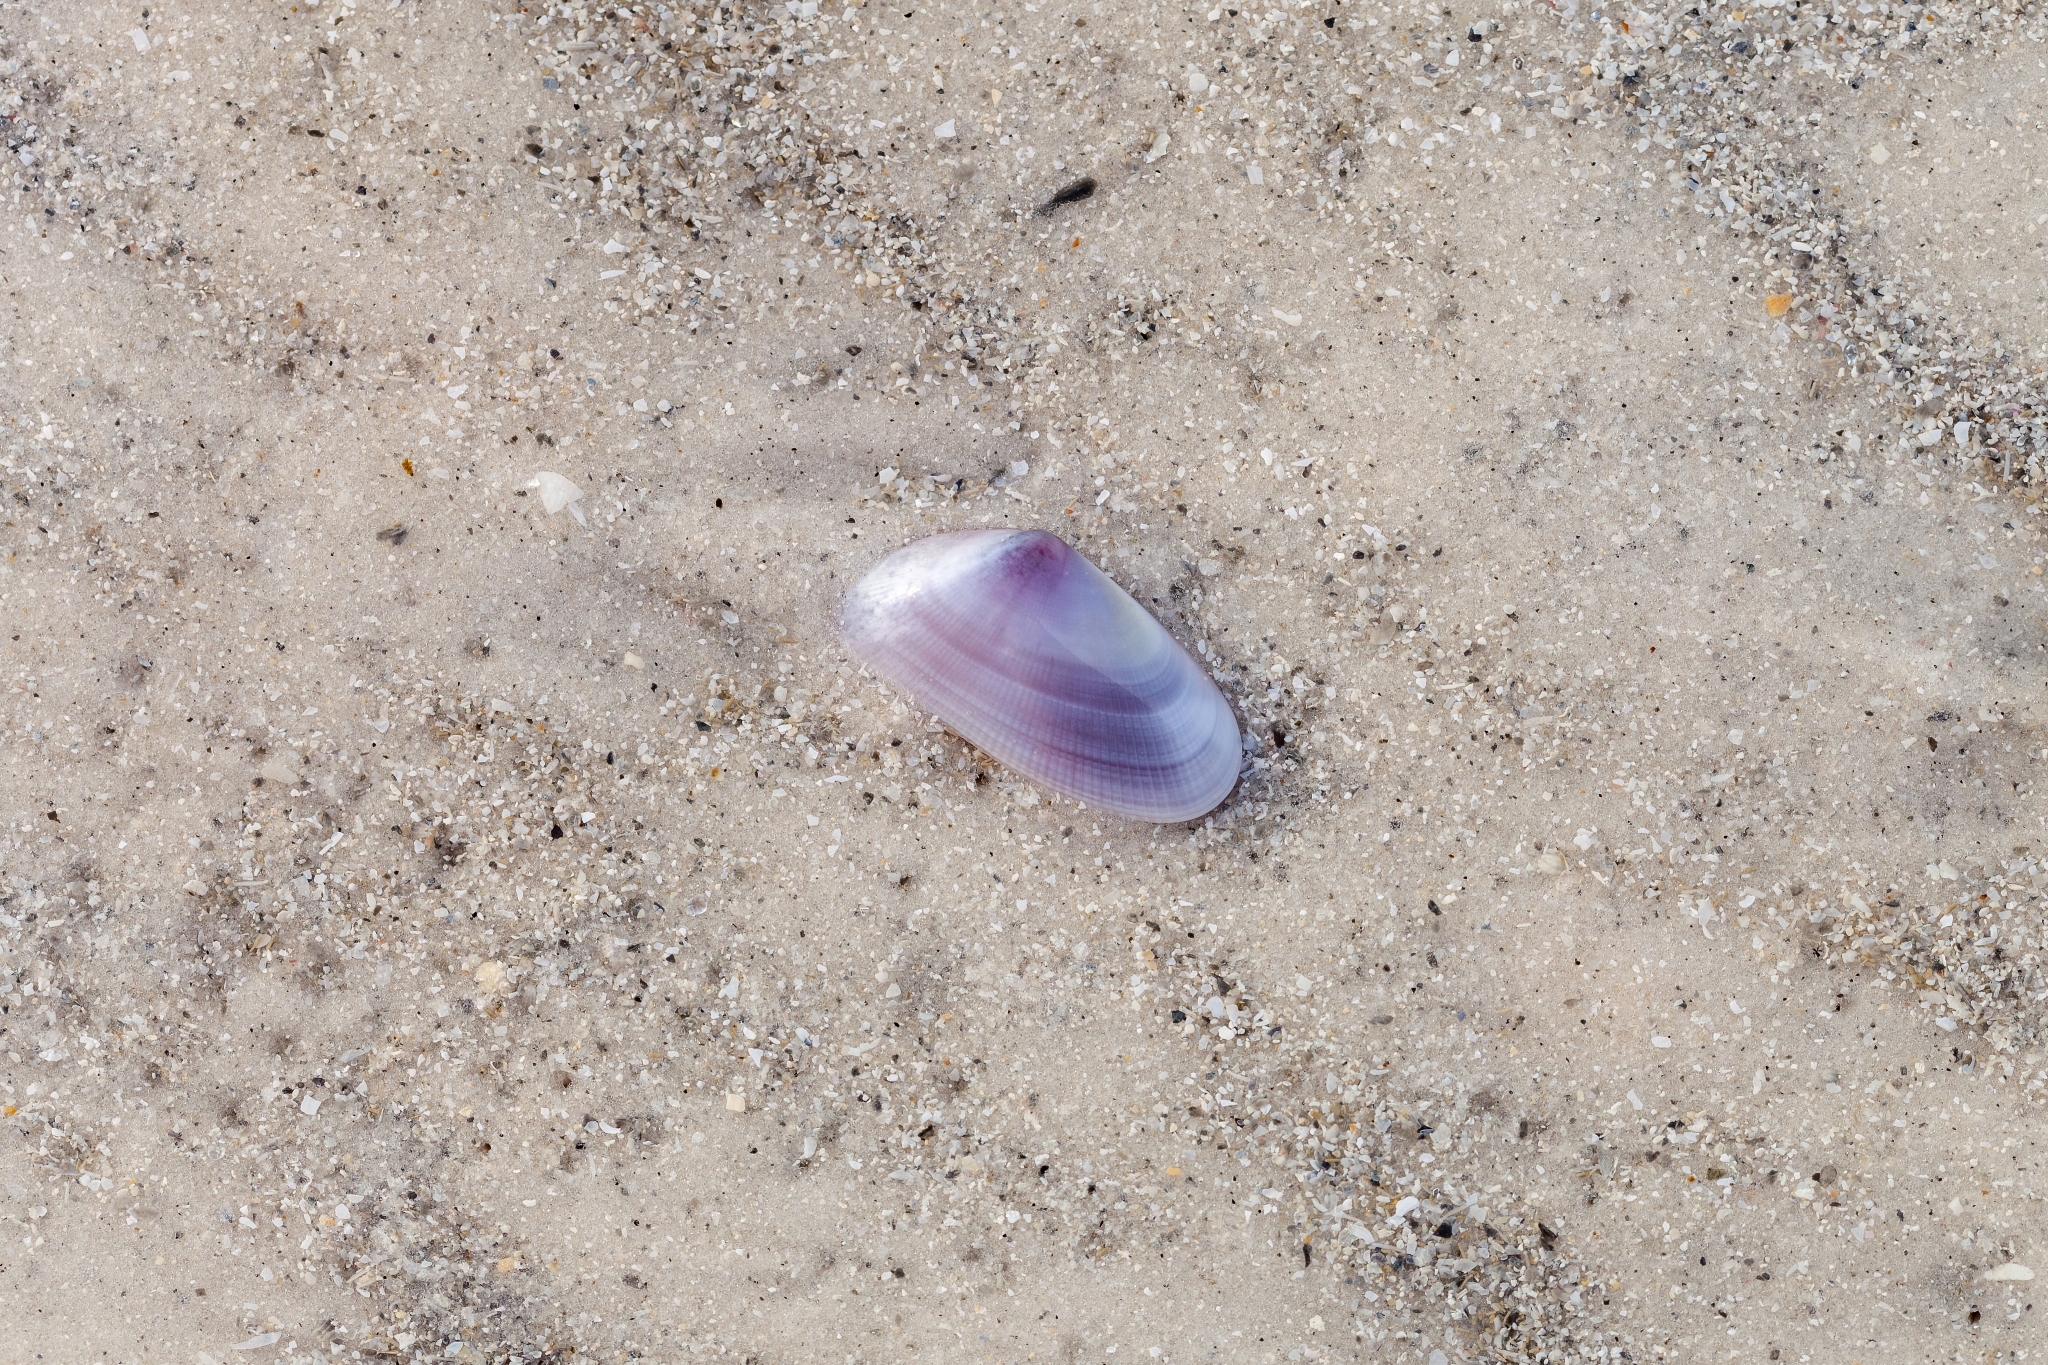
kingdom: Animalia
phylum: Mollusca
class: Bivalvia
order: Cardiida
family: Donacidae
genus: Donax
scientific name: Donax variabilis
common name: Butterfly shell
